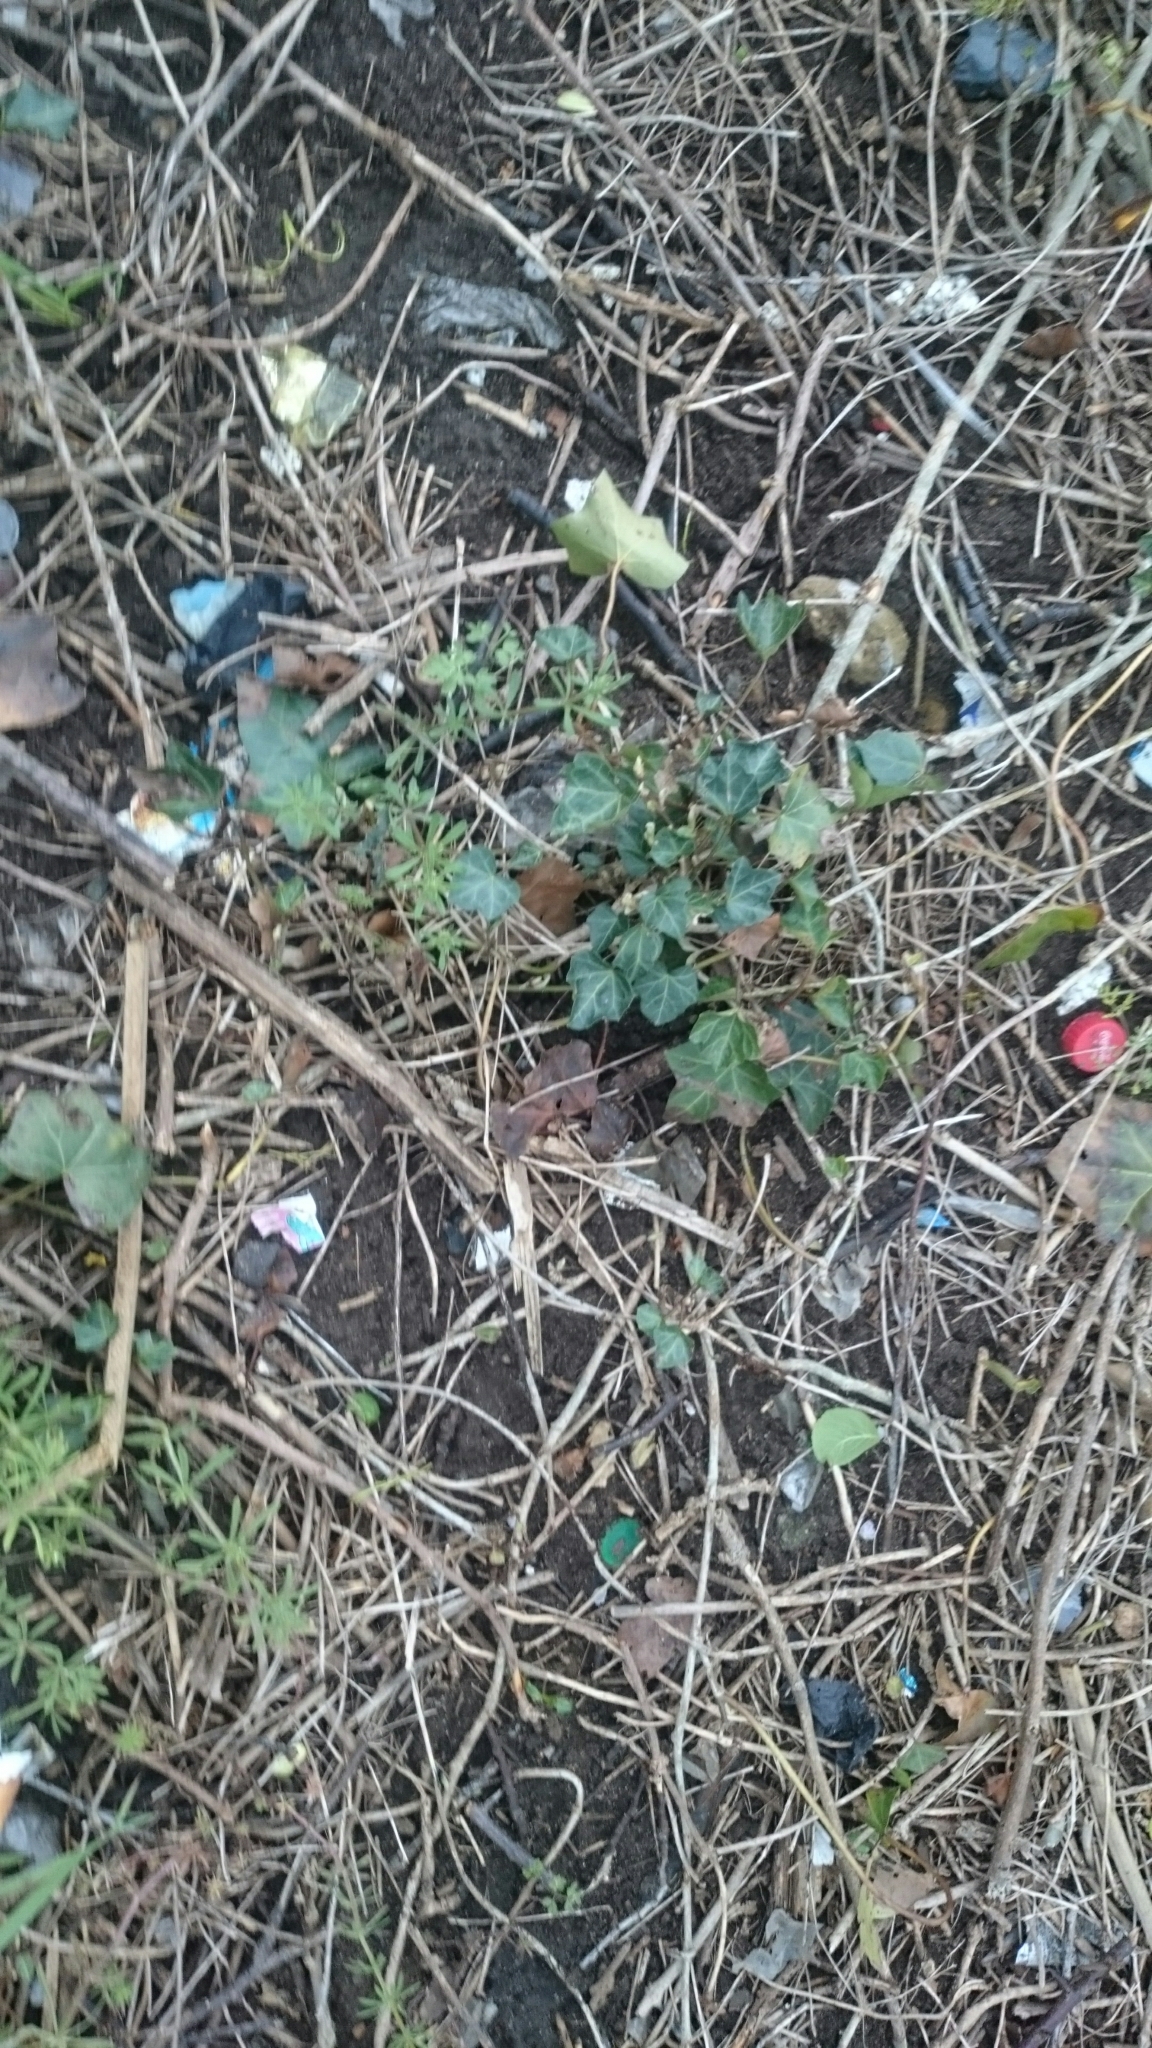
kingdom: Plantae
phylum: Tracheophyta
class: Magnoliopsida
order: Apiales
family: Araliaceae
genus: Hedera
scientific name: Hedera helix
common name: Ivy
